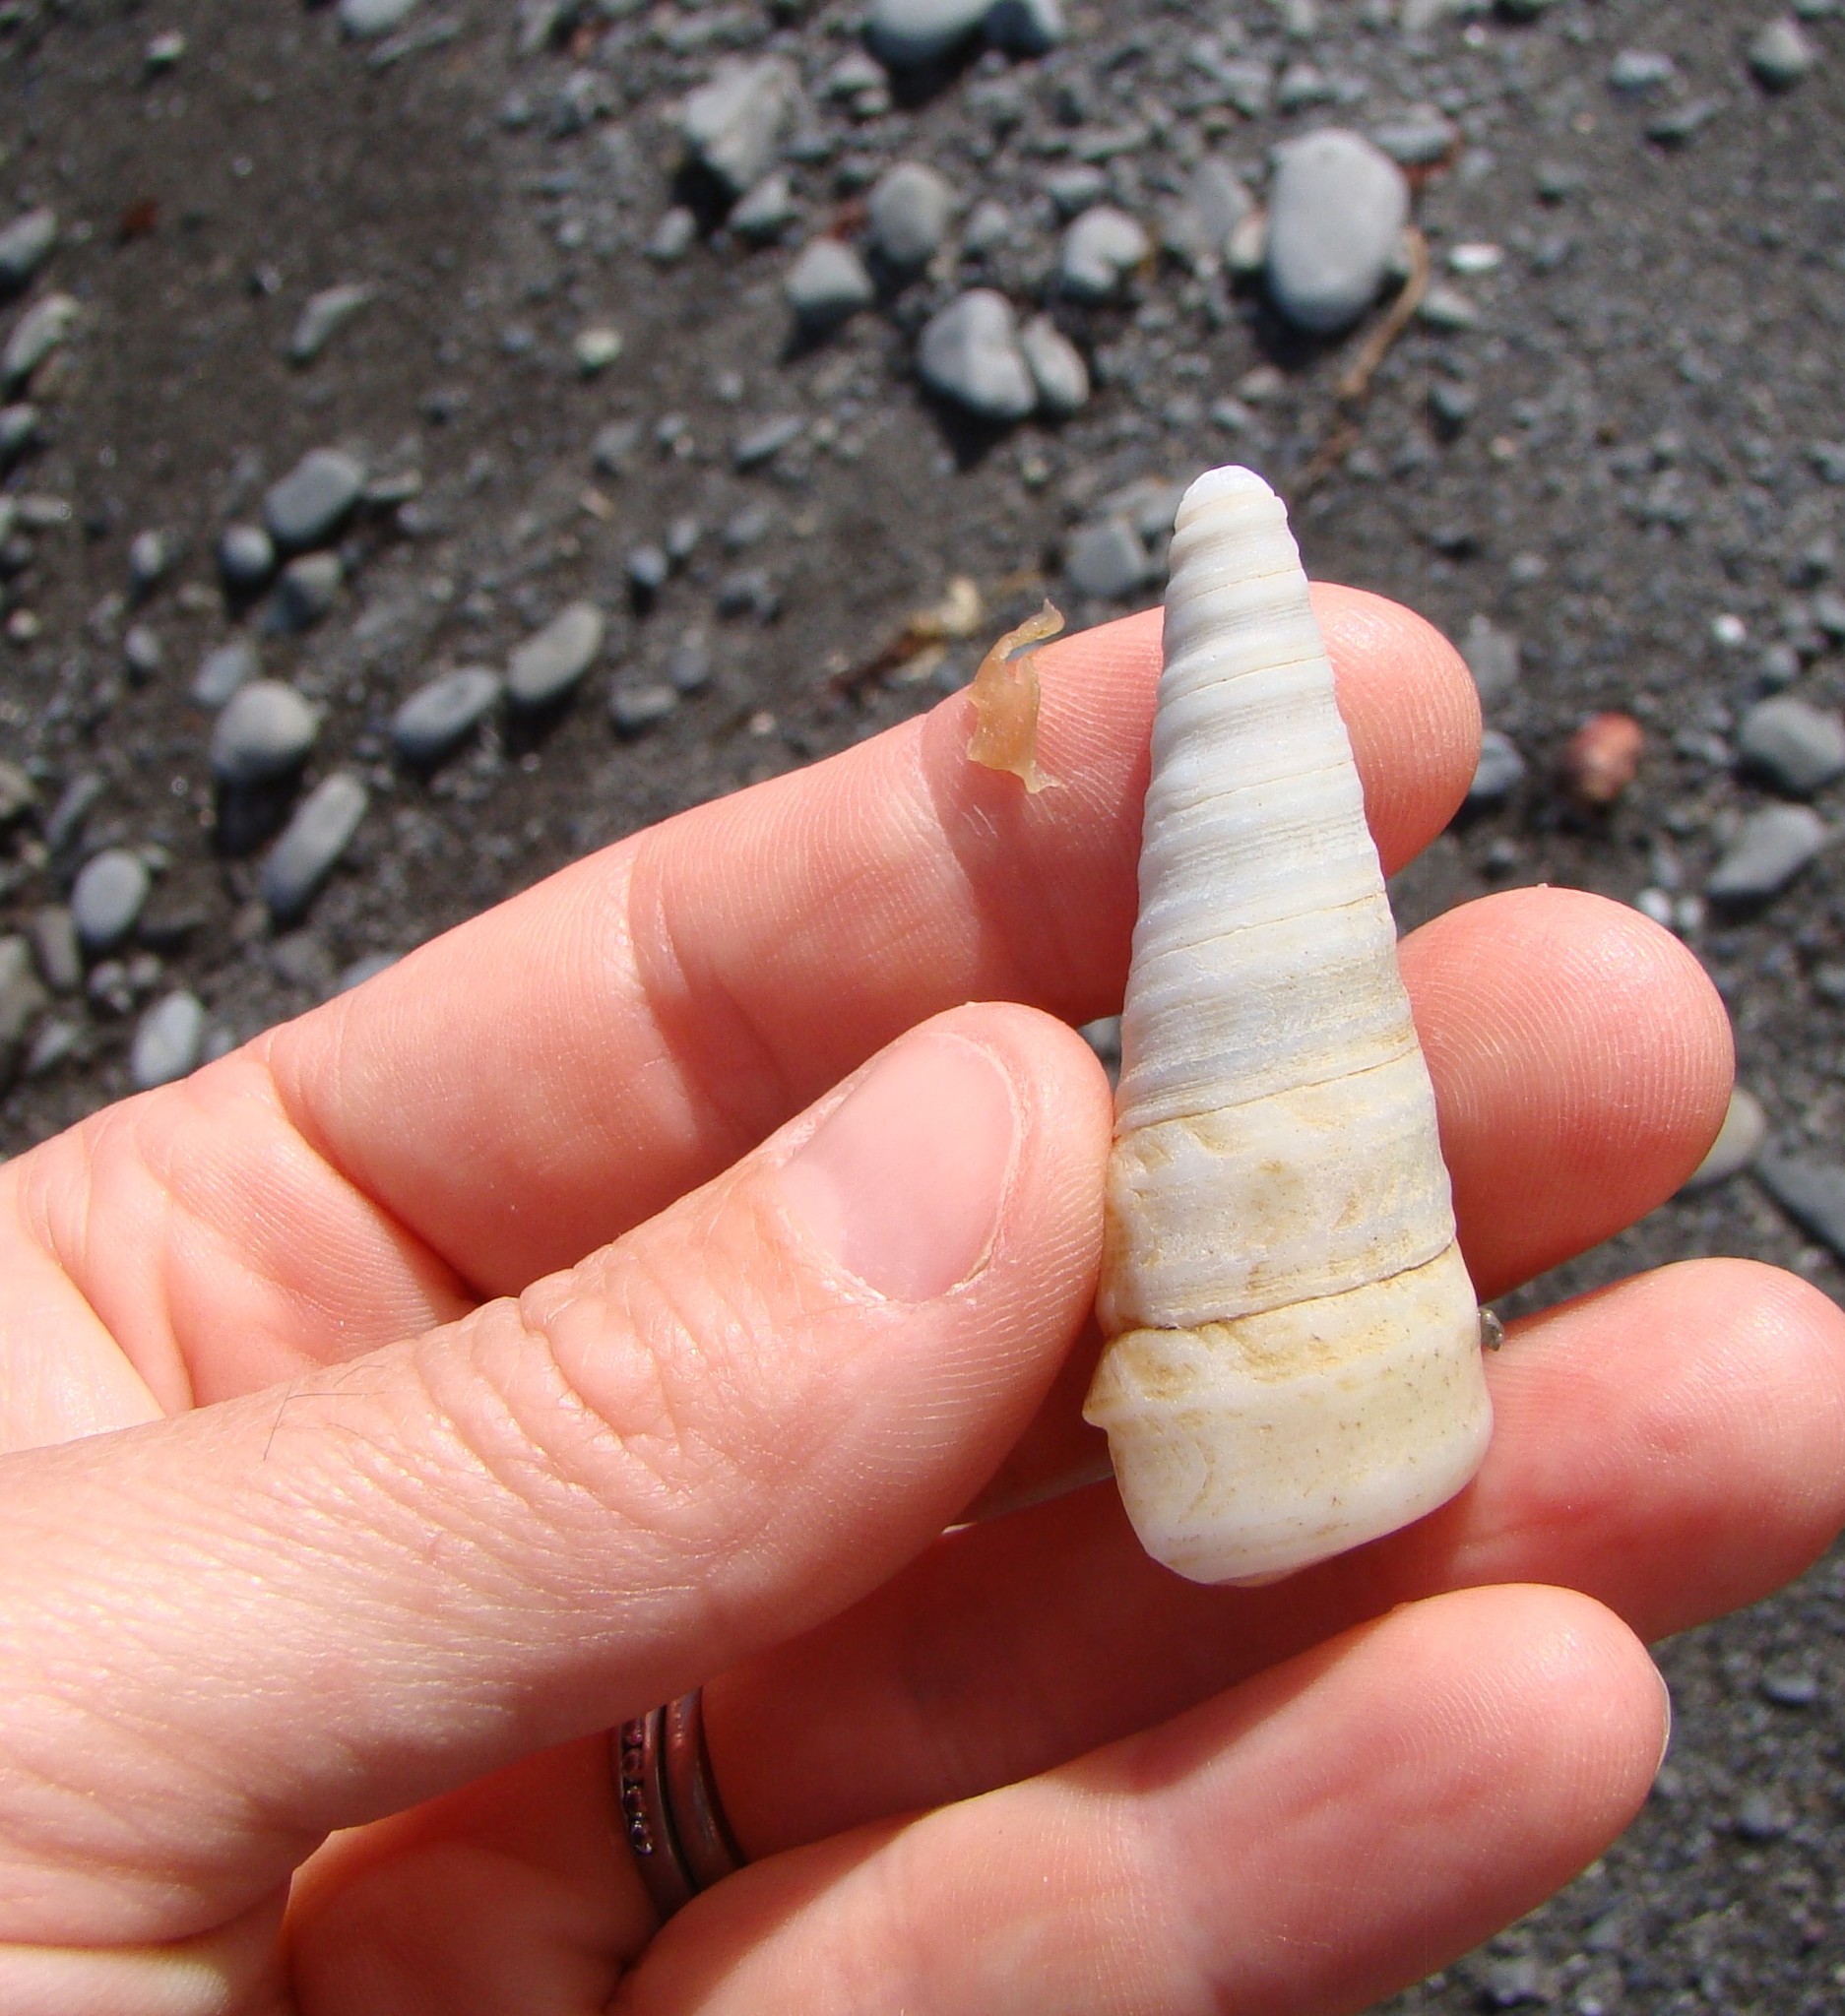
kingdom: Animalia
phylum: Mollusca
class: Gastropoda
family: Turritellidae
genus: Maoricolpus
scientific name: Maoricolpus roseus
